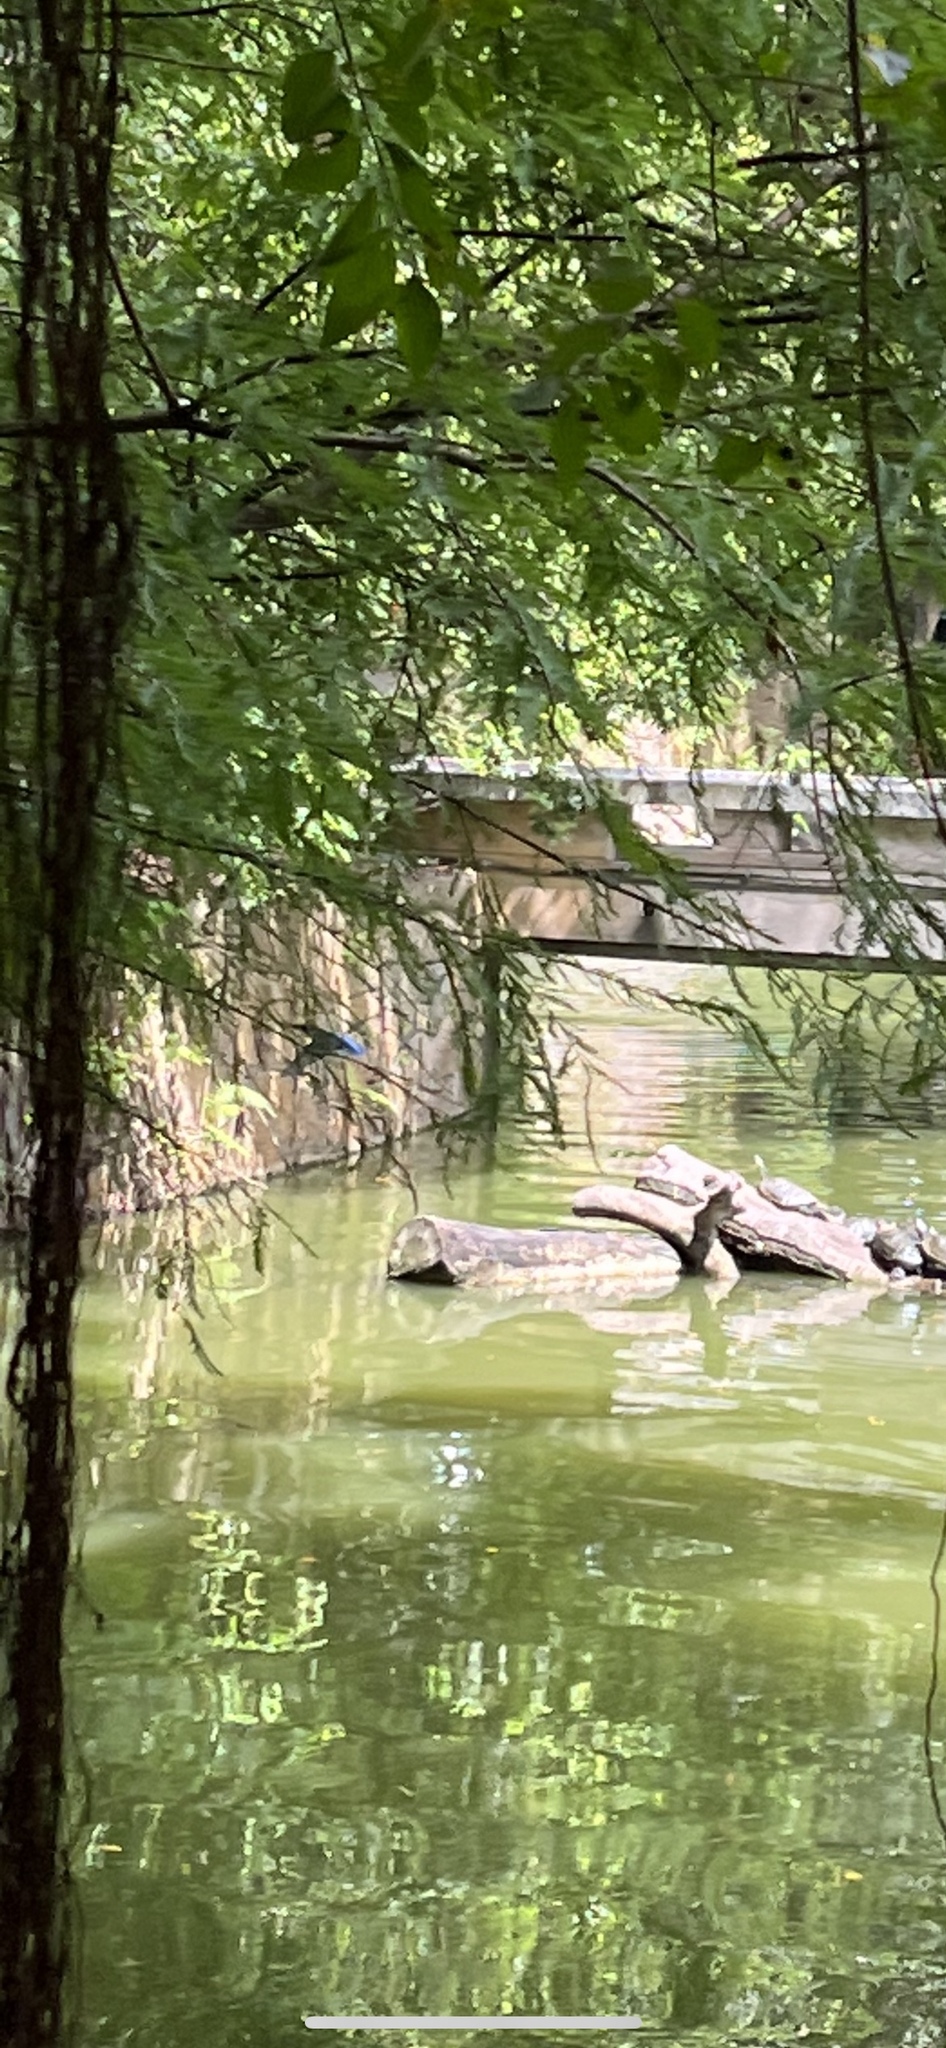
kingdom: Animalia
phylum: Chordata
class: Aves
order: Coraciiformes
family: Alcedinidae
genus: Alcedo
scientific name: Alcedo atthis
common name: Common kingfisher
